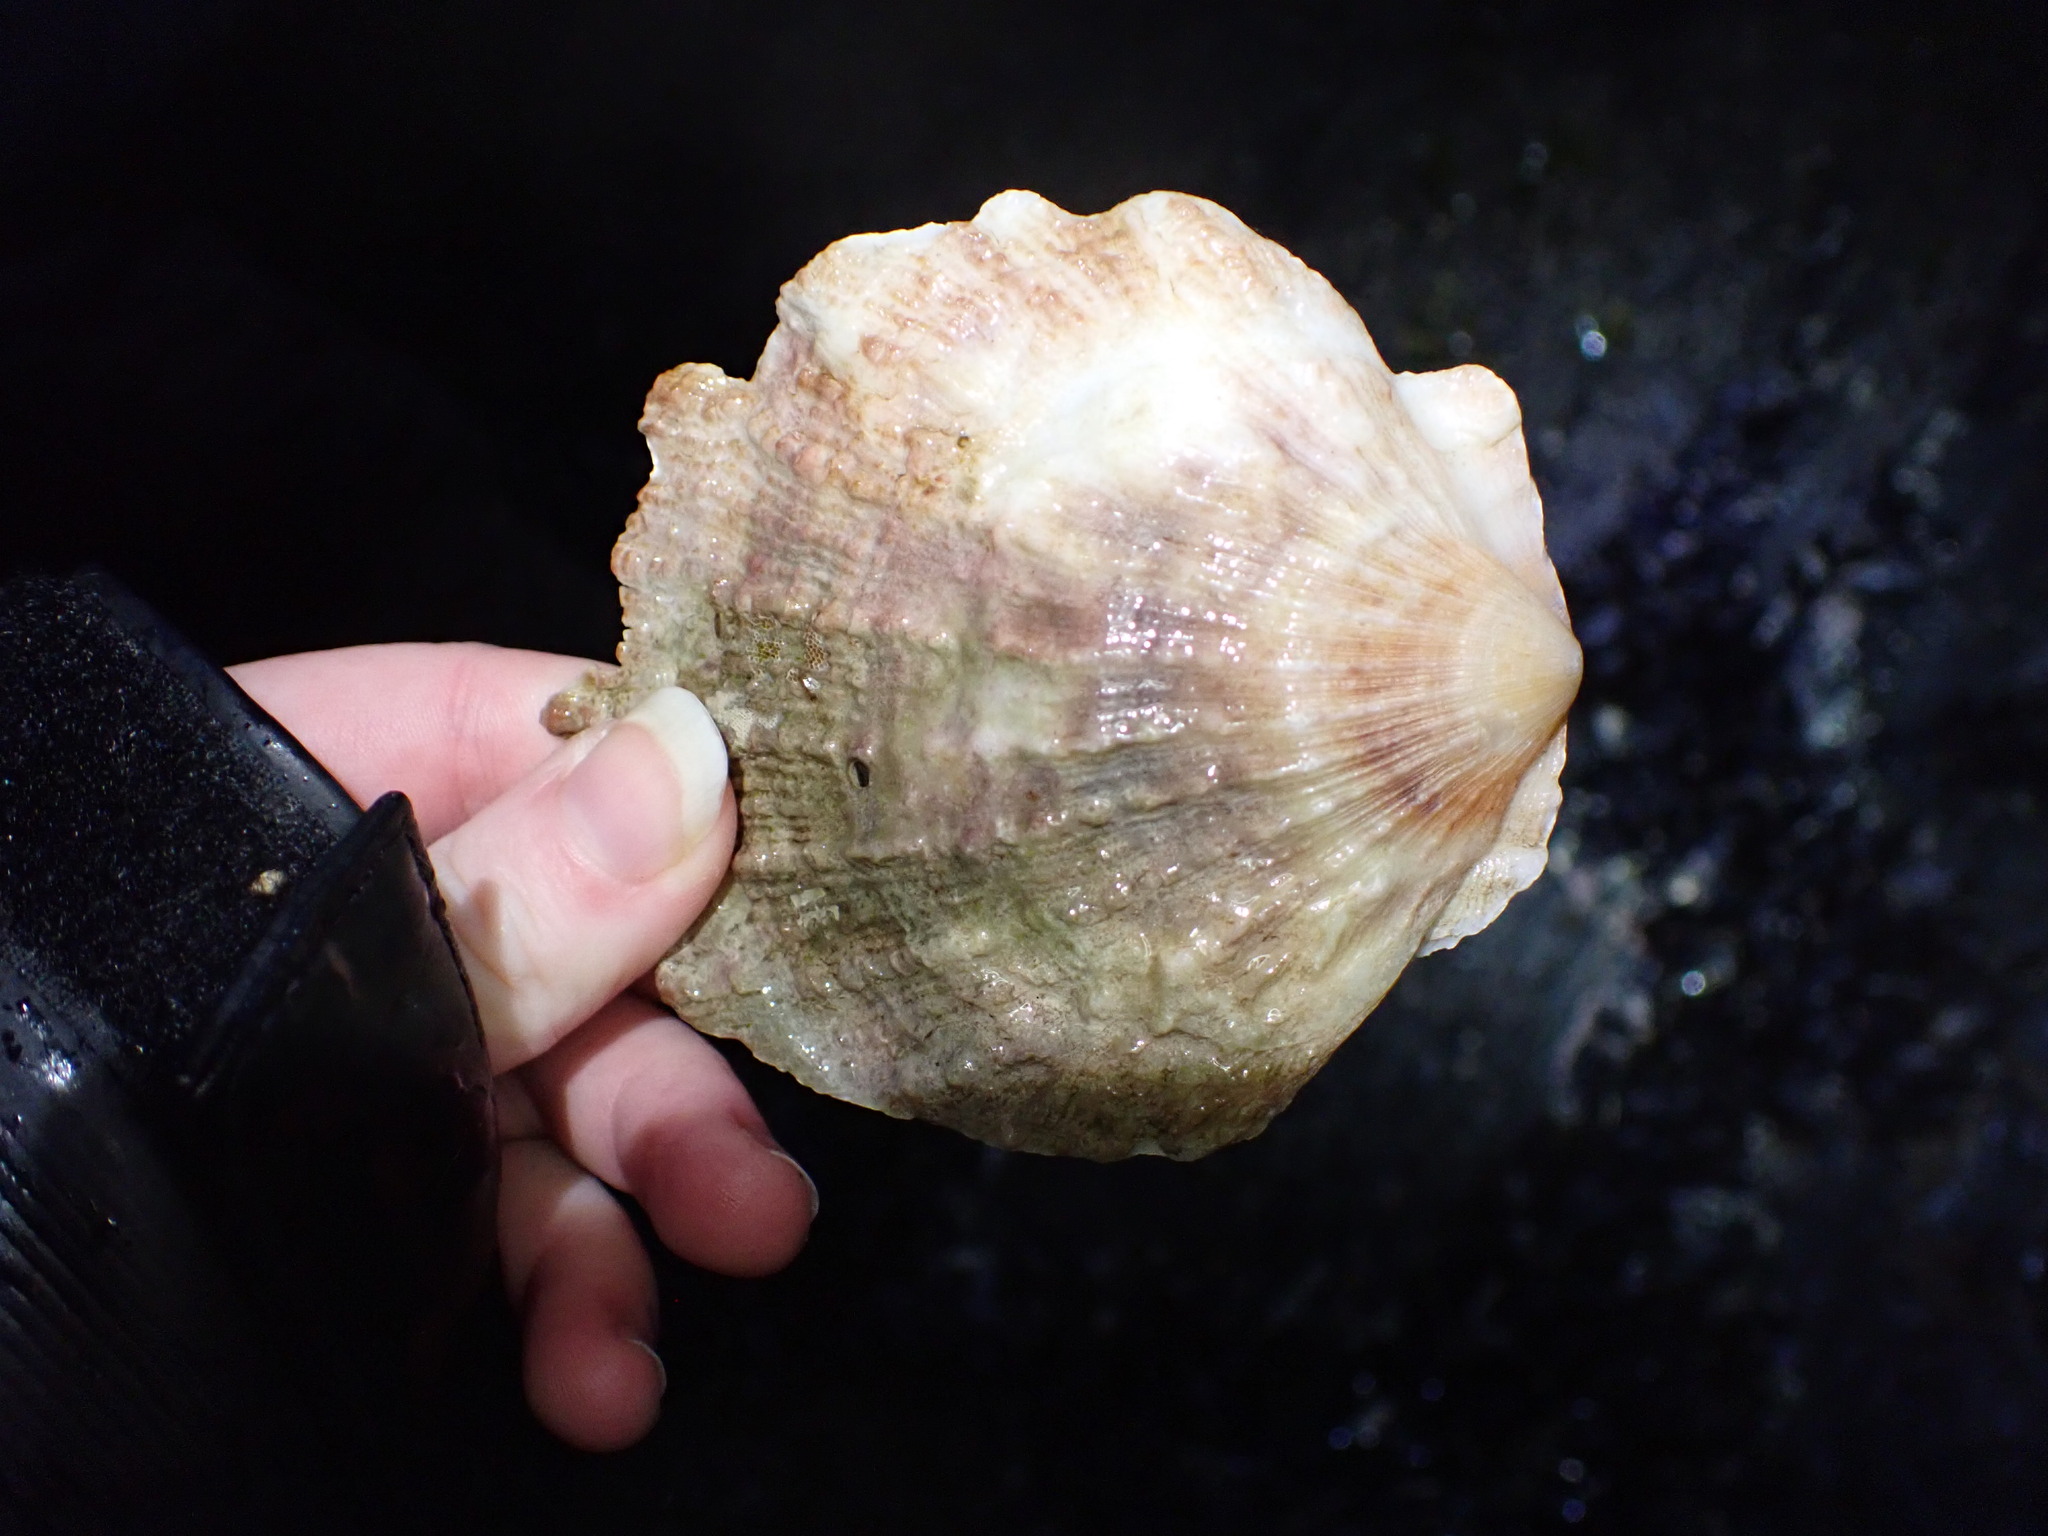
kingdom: Animalia
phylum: Mollusca
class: Bivalvia
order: Pectinida
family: Pectinidae
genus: Crassadoma
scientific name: Crassadoma gigantea
